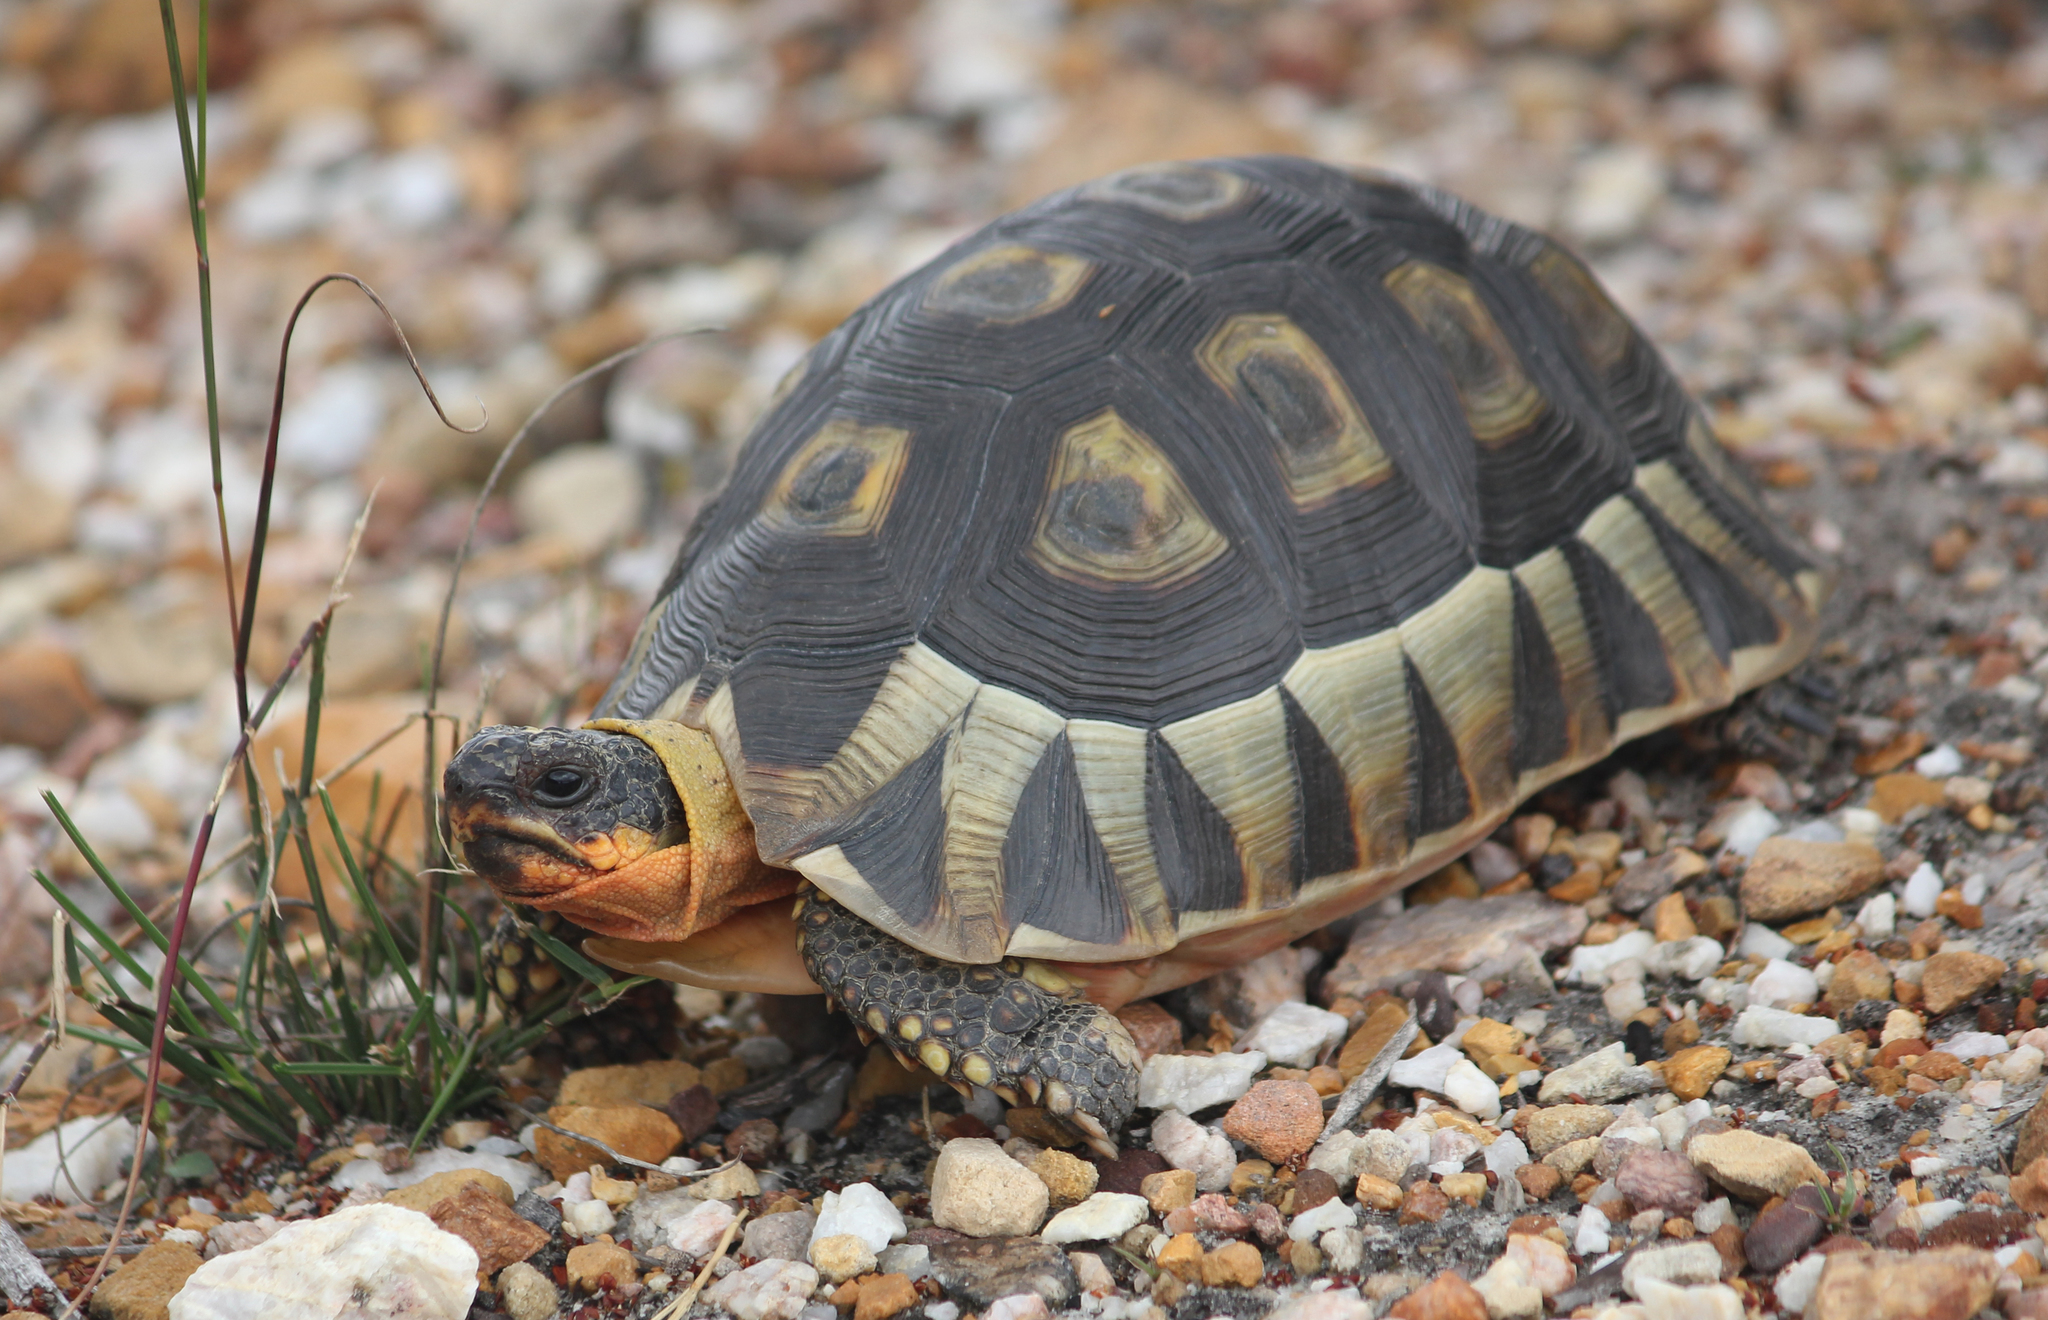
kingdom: Animalia
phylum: Chordata
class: Testudines
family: Testudinidae
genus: Chersina
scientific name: Chersina angulata
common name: South african bowsprit tortoise
